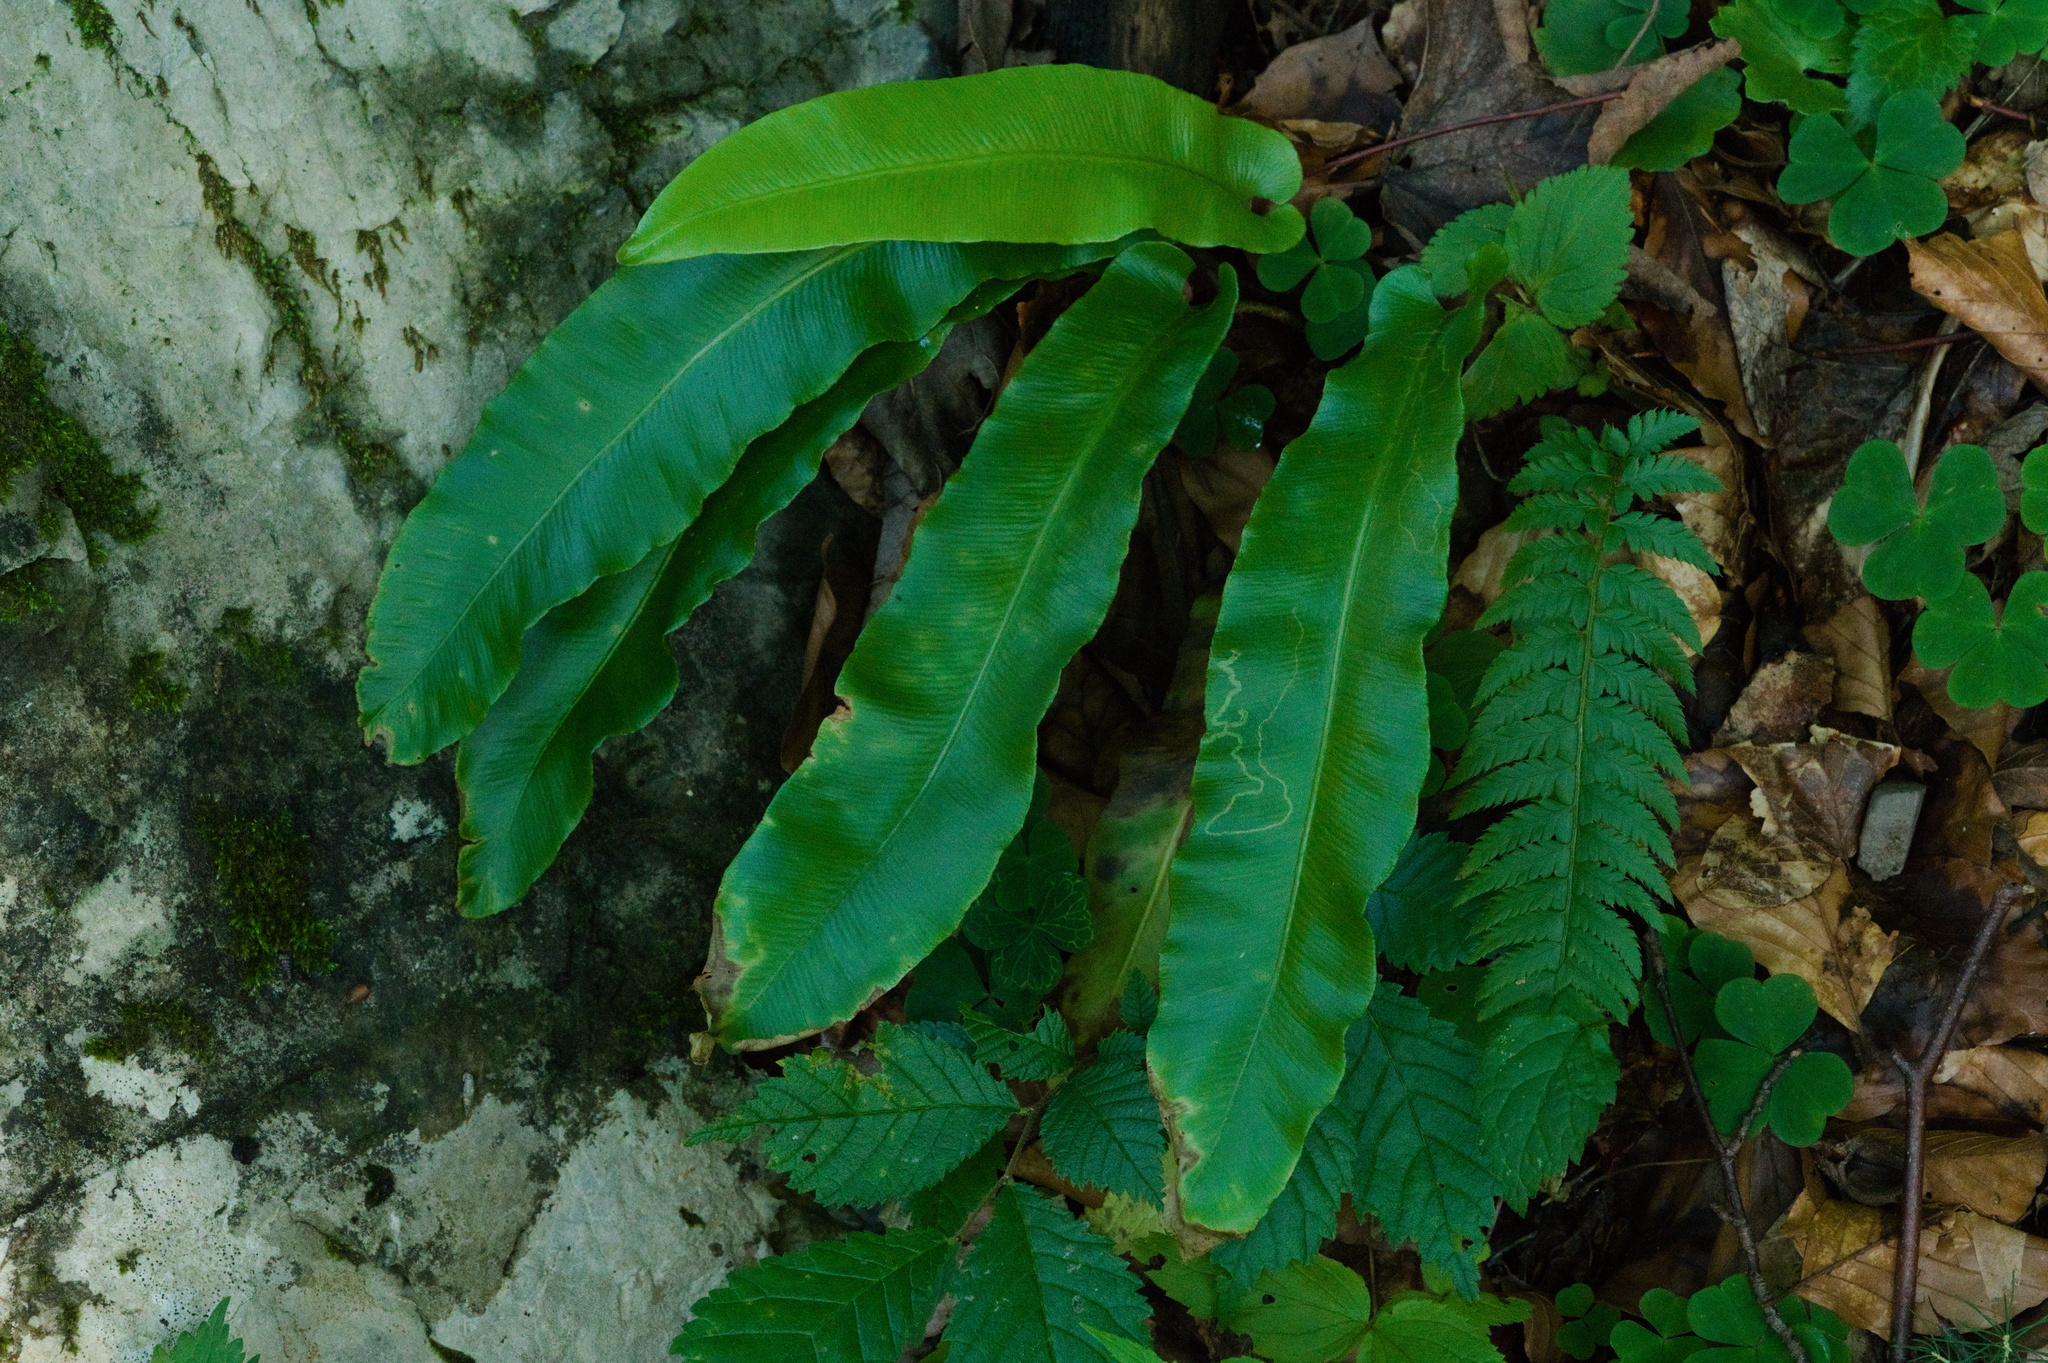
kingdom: Plantae
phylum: Tracheophyta
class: Polypodiopsida
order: Polypodiales
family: Aspleniaceae
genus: Asplenium
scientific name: Asplenium scolopendrium
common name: Hart's-tongue fern
